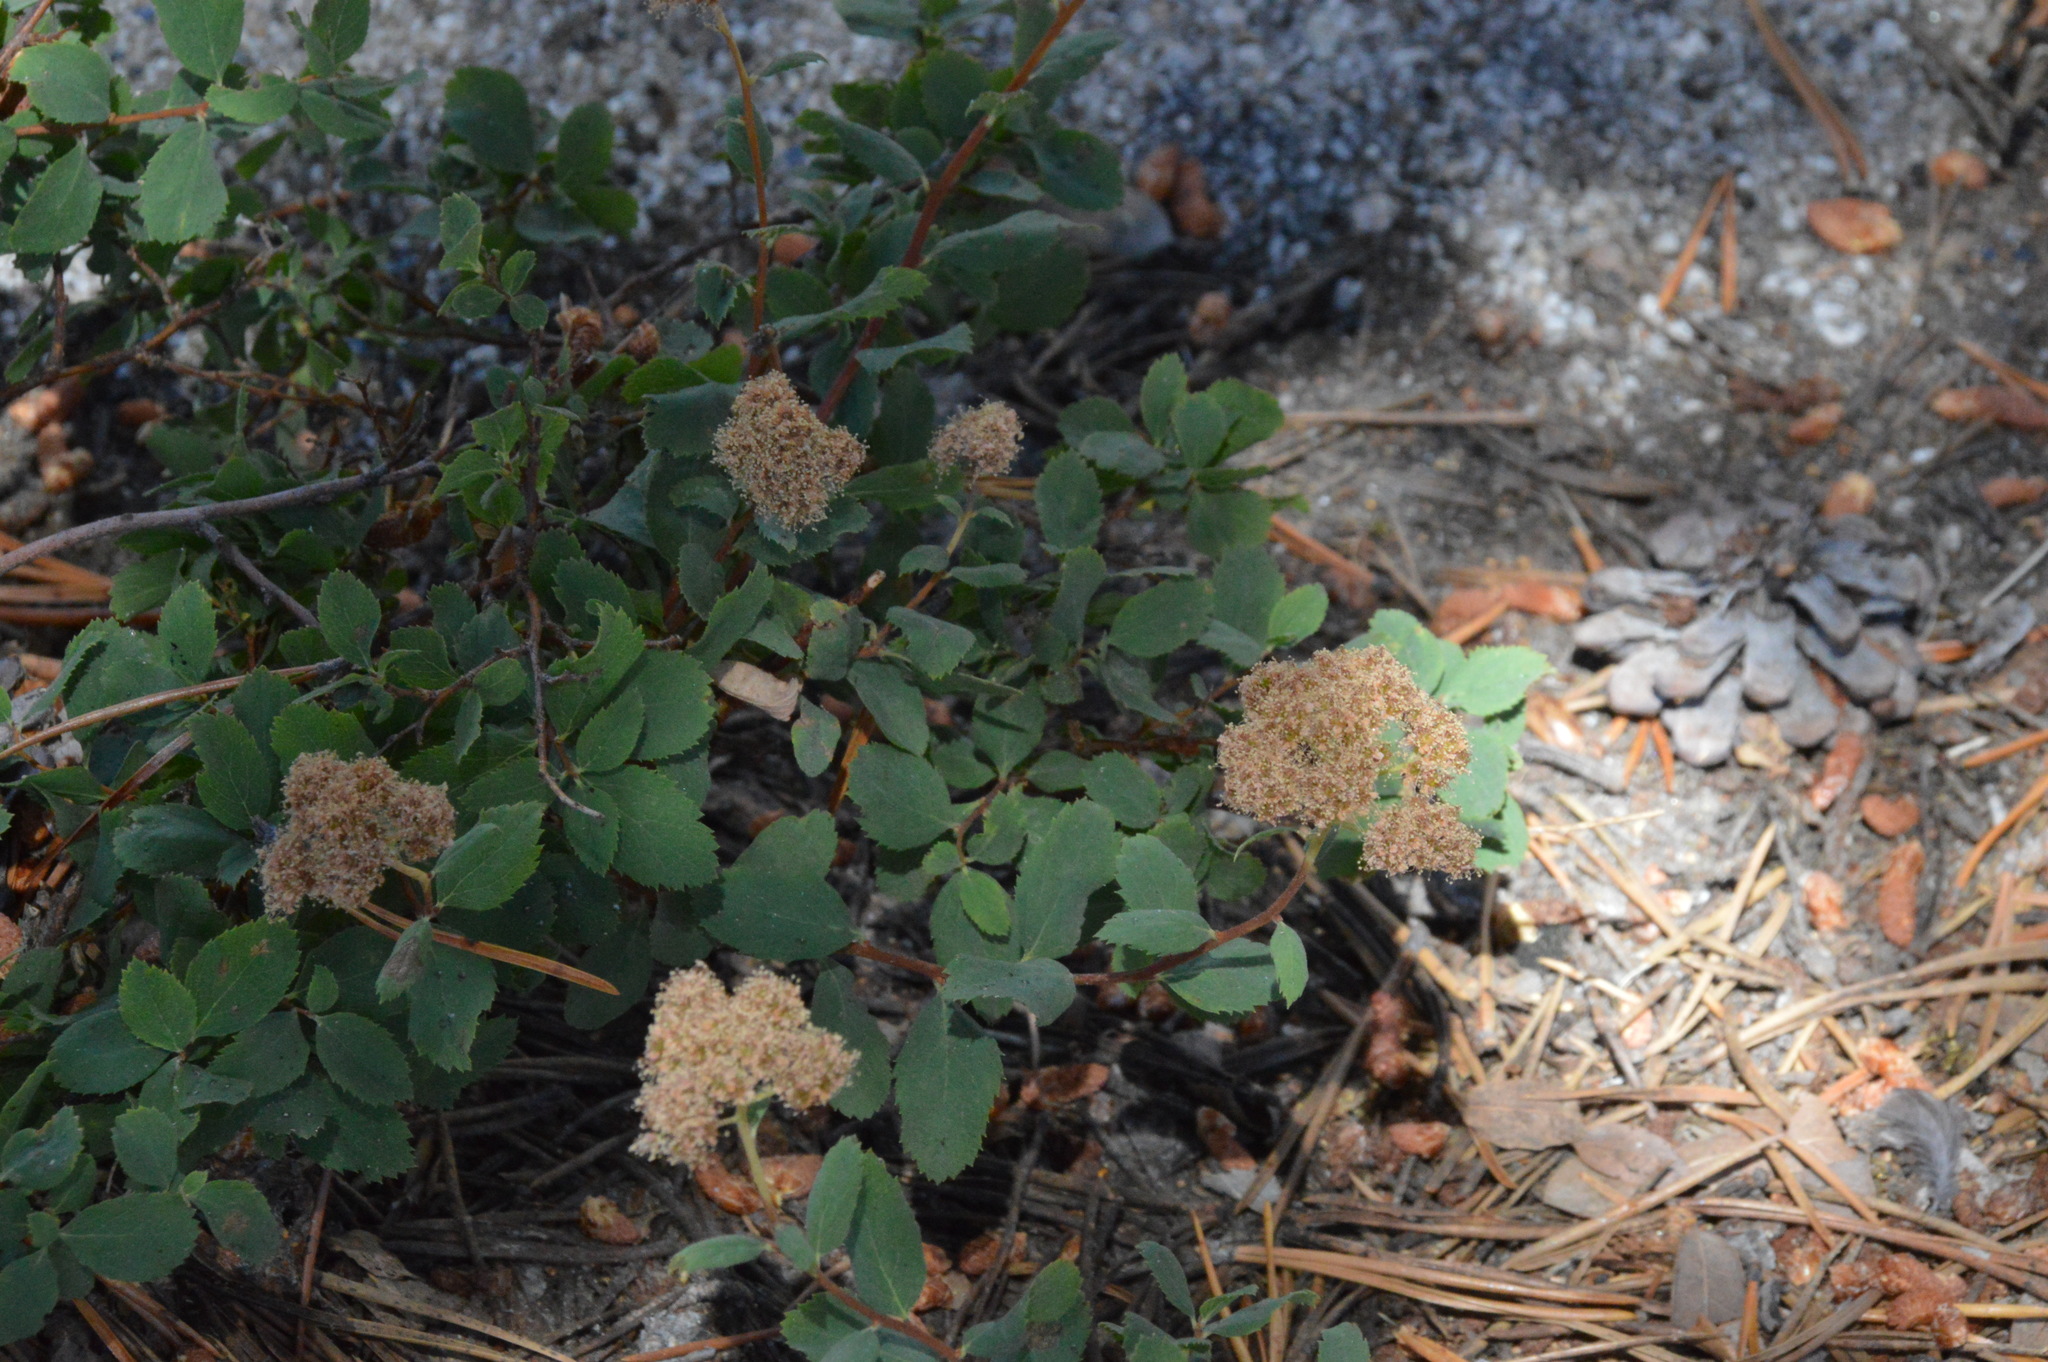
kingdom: Plantae
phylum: Tracheophyta
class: Magnoliopsida
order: Rosales
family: Rosaceae
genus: Spiraea
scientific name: Spiraea splendens
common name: Subalpine meadowsweet
